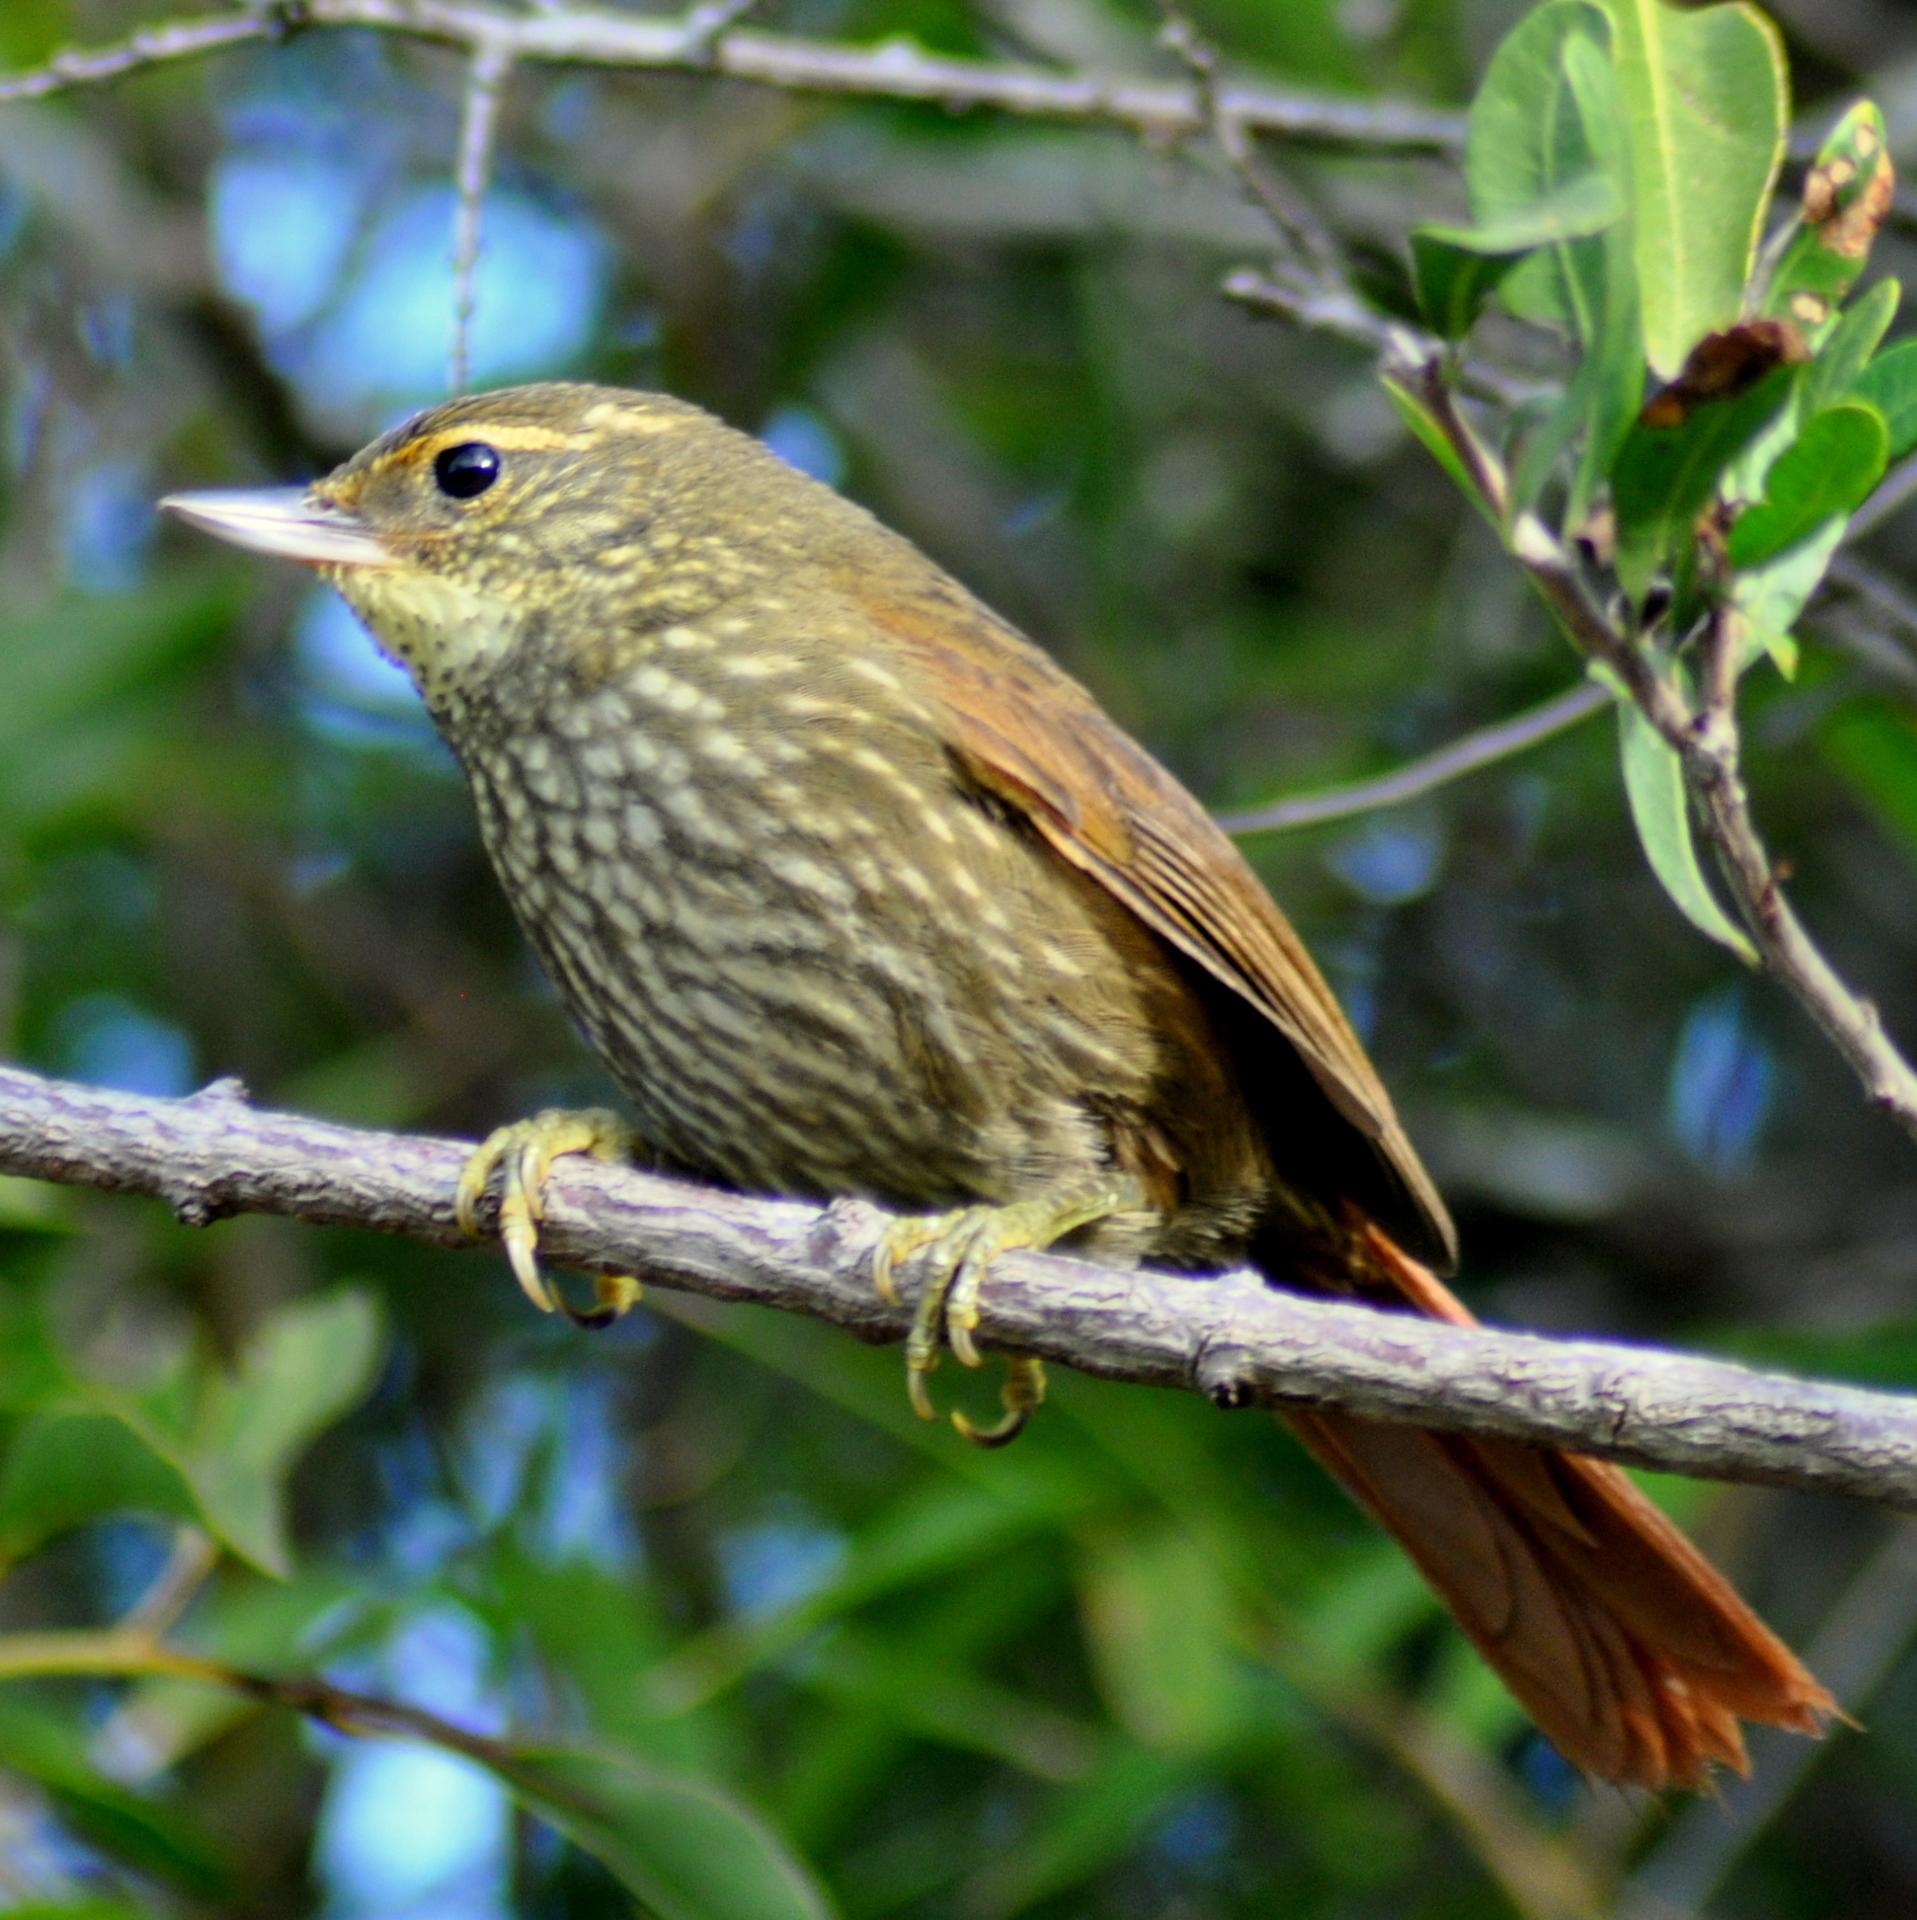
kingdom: Animalia
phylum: Chordata
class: Aves
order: Passeriformes
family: Furnariidae
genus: Syndactyla
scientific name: Syndactyla rufosuperciliata
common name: Buff-browed foliage-gleaner
